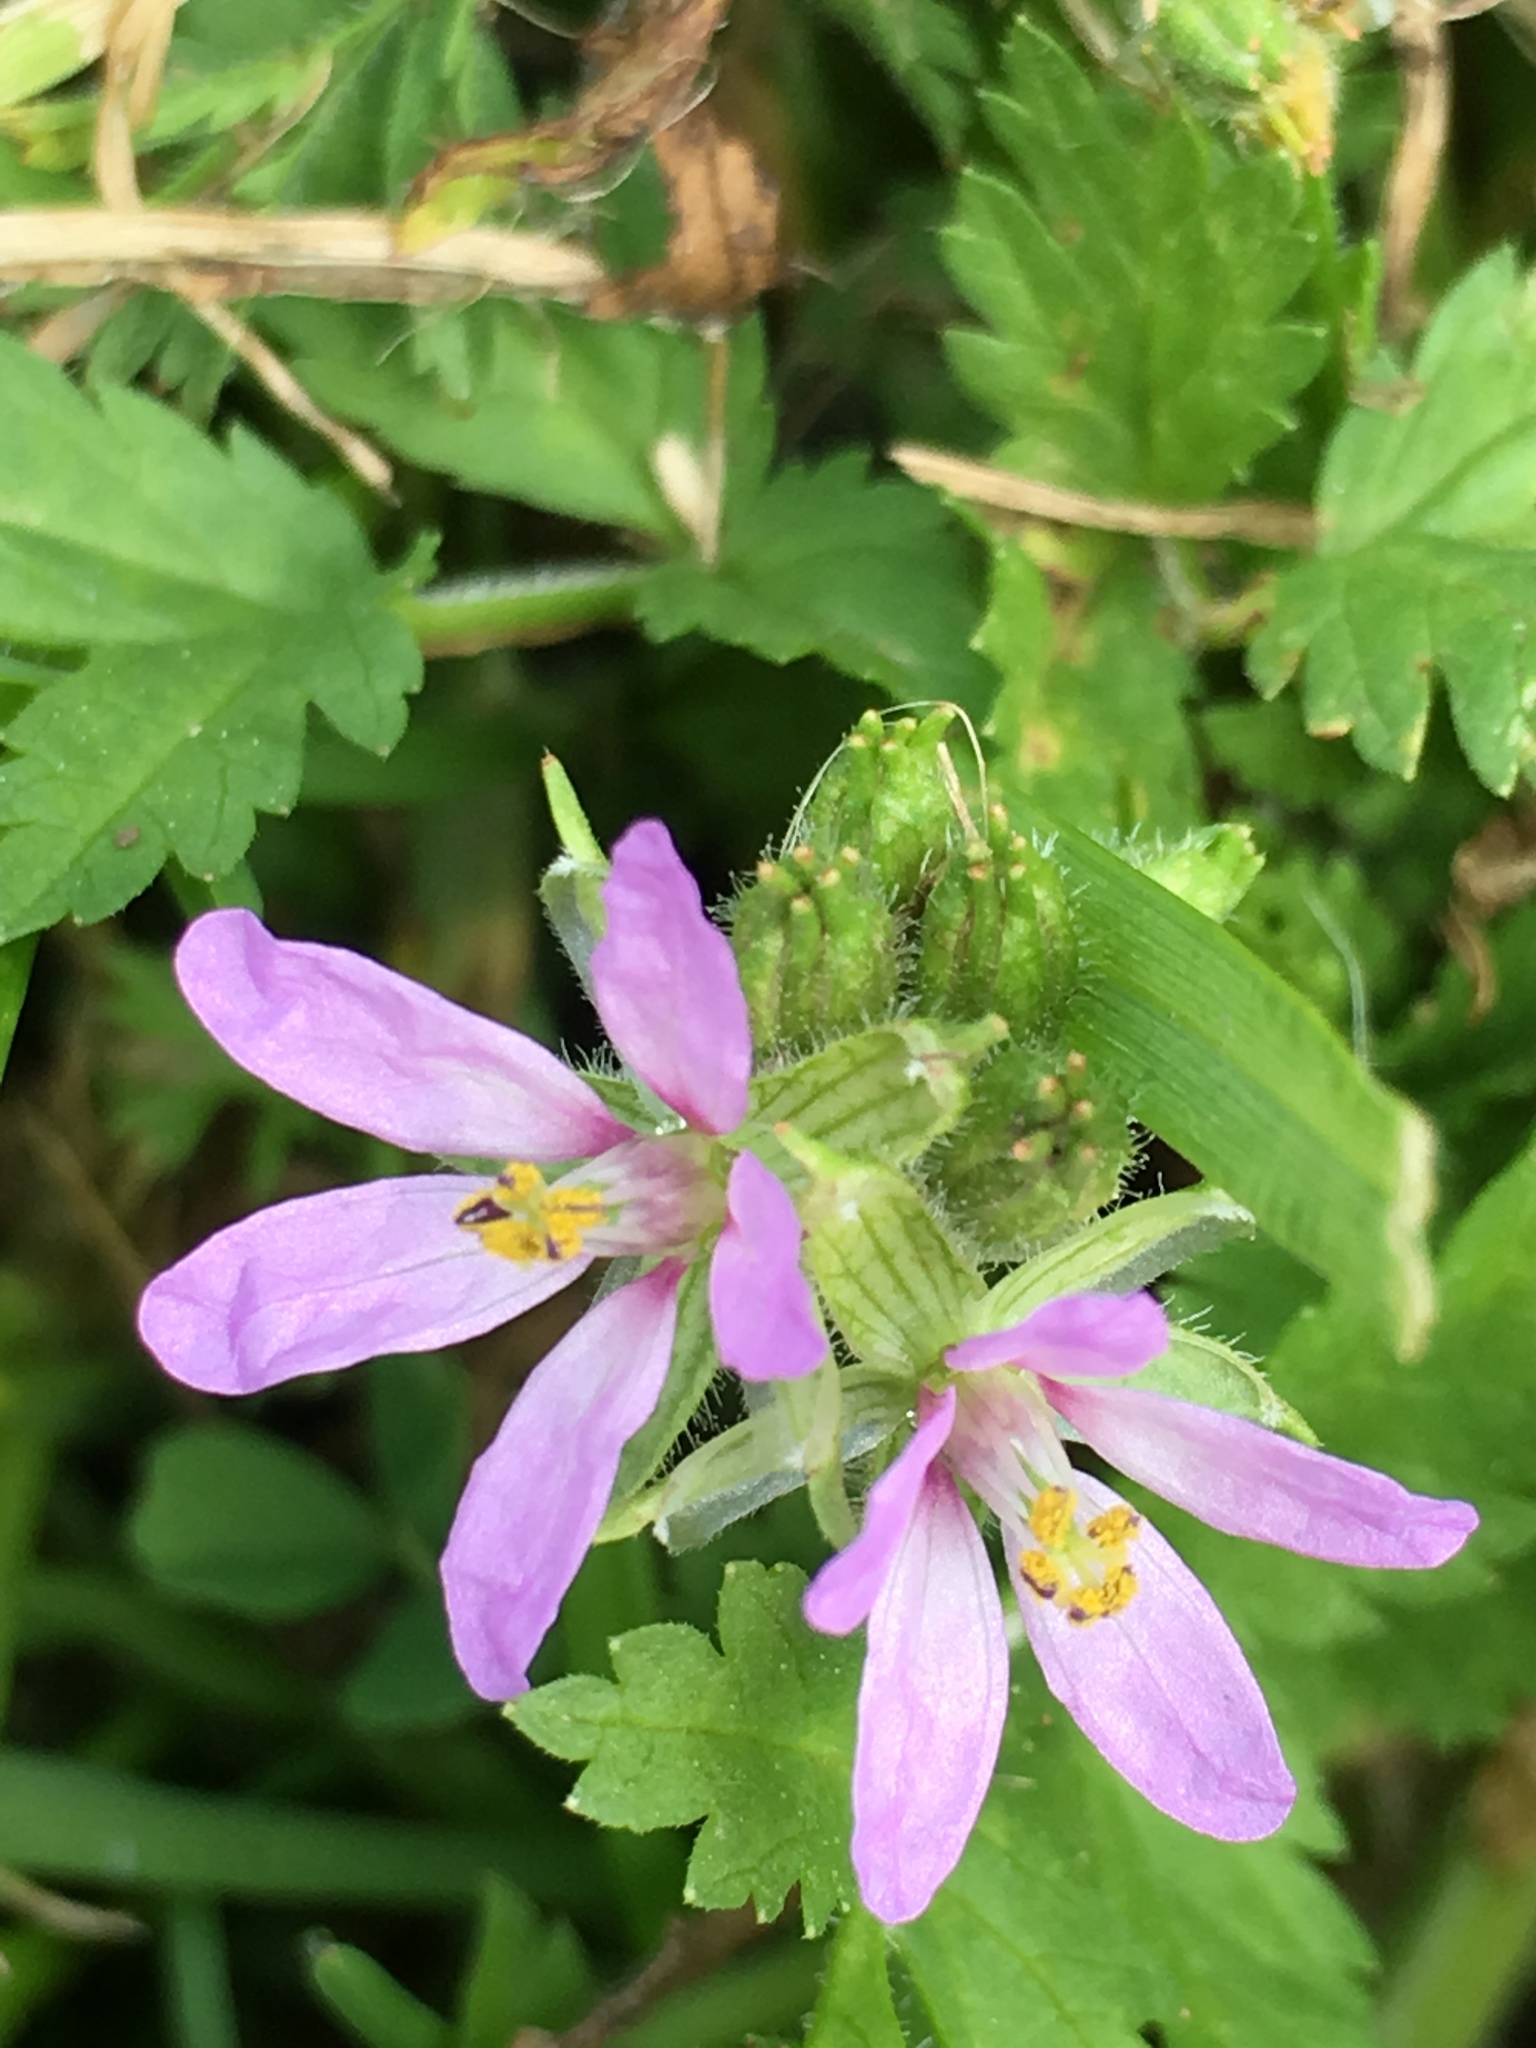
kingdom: Plantae
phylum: Tracheophyta
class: Magnoliopsida
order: Geraniales
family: Geraniaceae
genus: Erodium
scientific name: Erodium moschatum
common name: Musk stork's-bill
